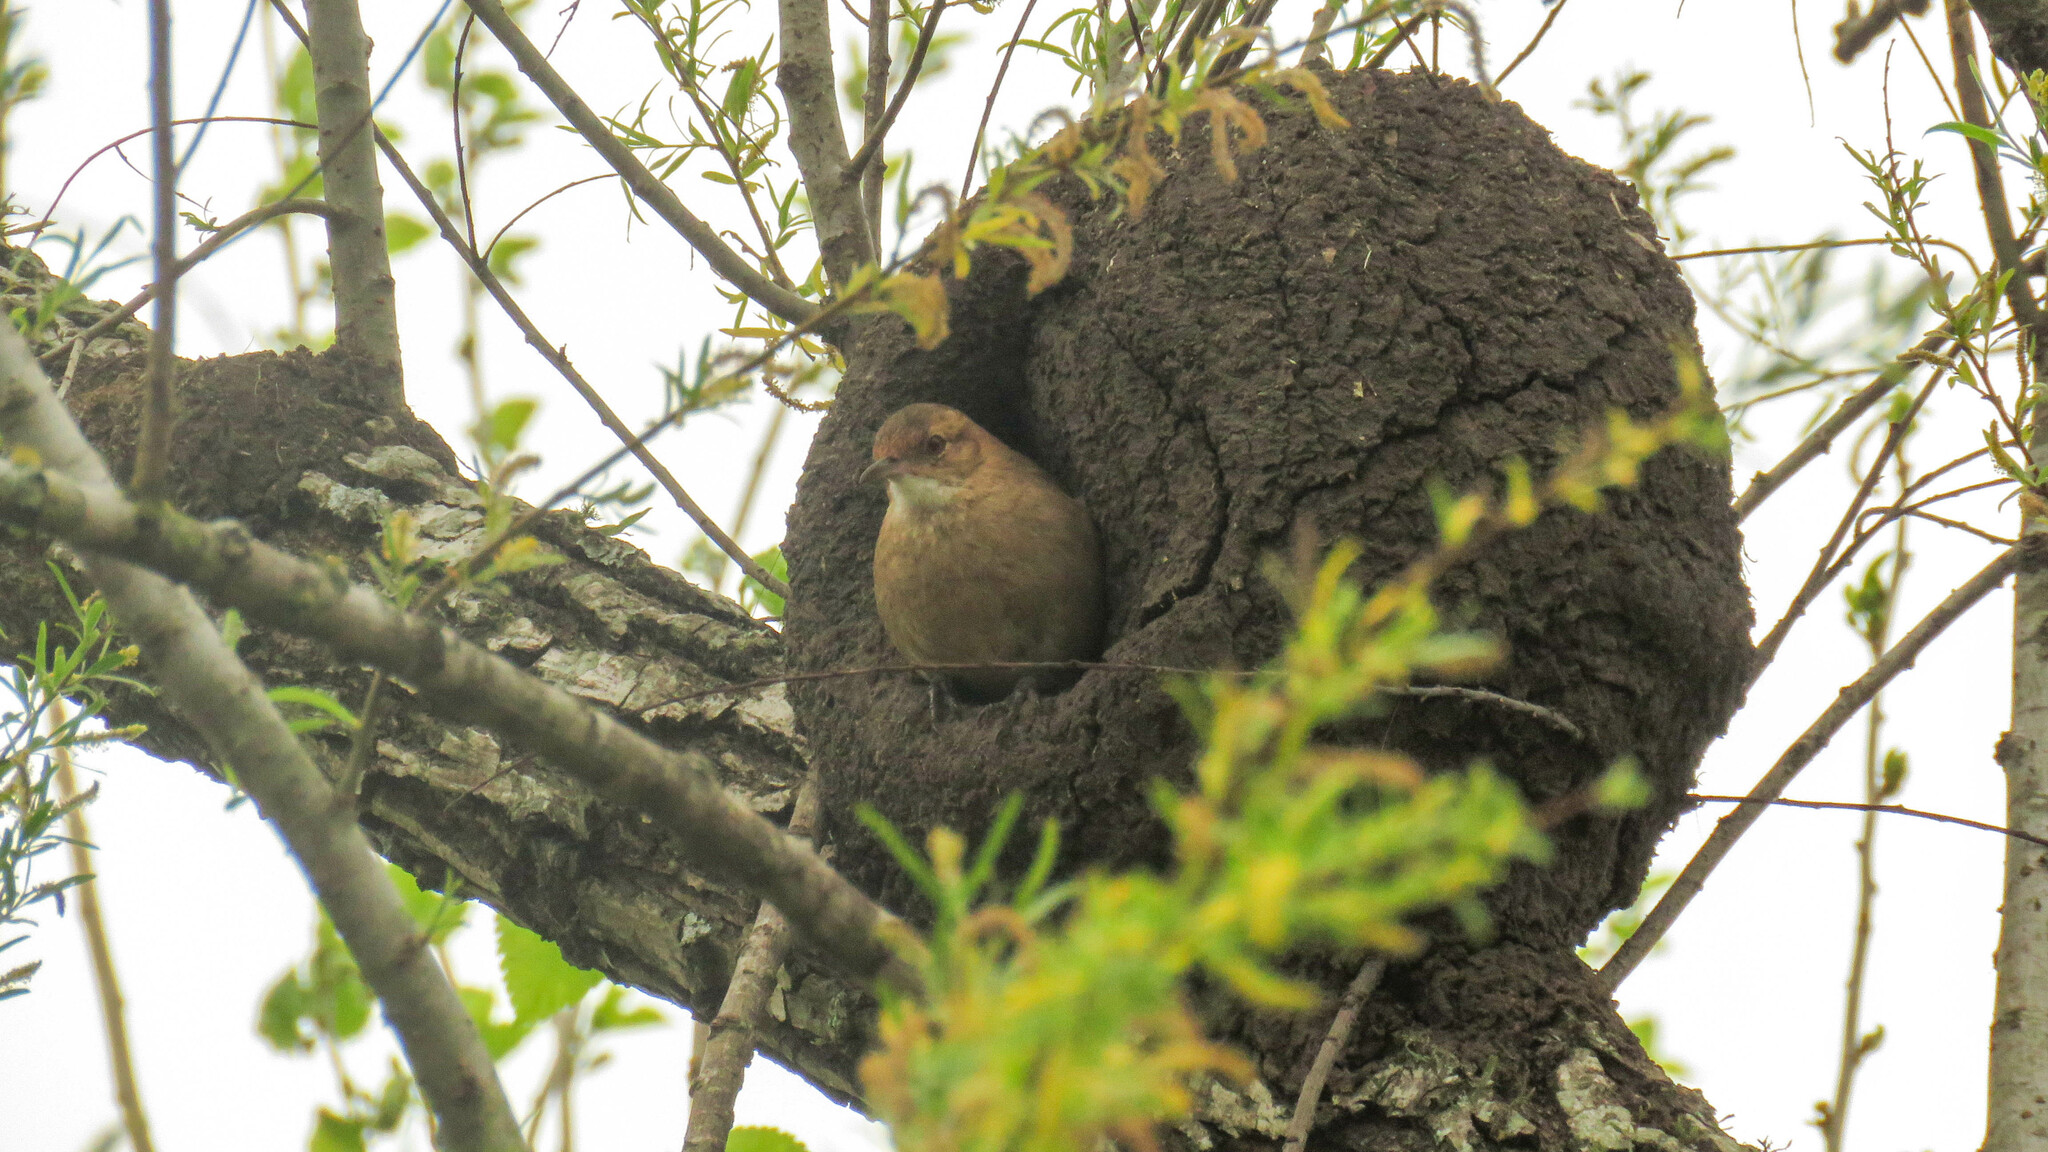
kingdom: Animalia
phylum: Chordata
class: Aves
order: Passeriformes
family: Furnariidae
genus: Furnarius
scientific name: Furnarius rufus
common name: Rufous hornero
